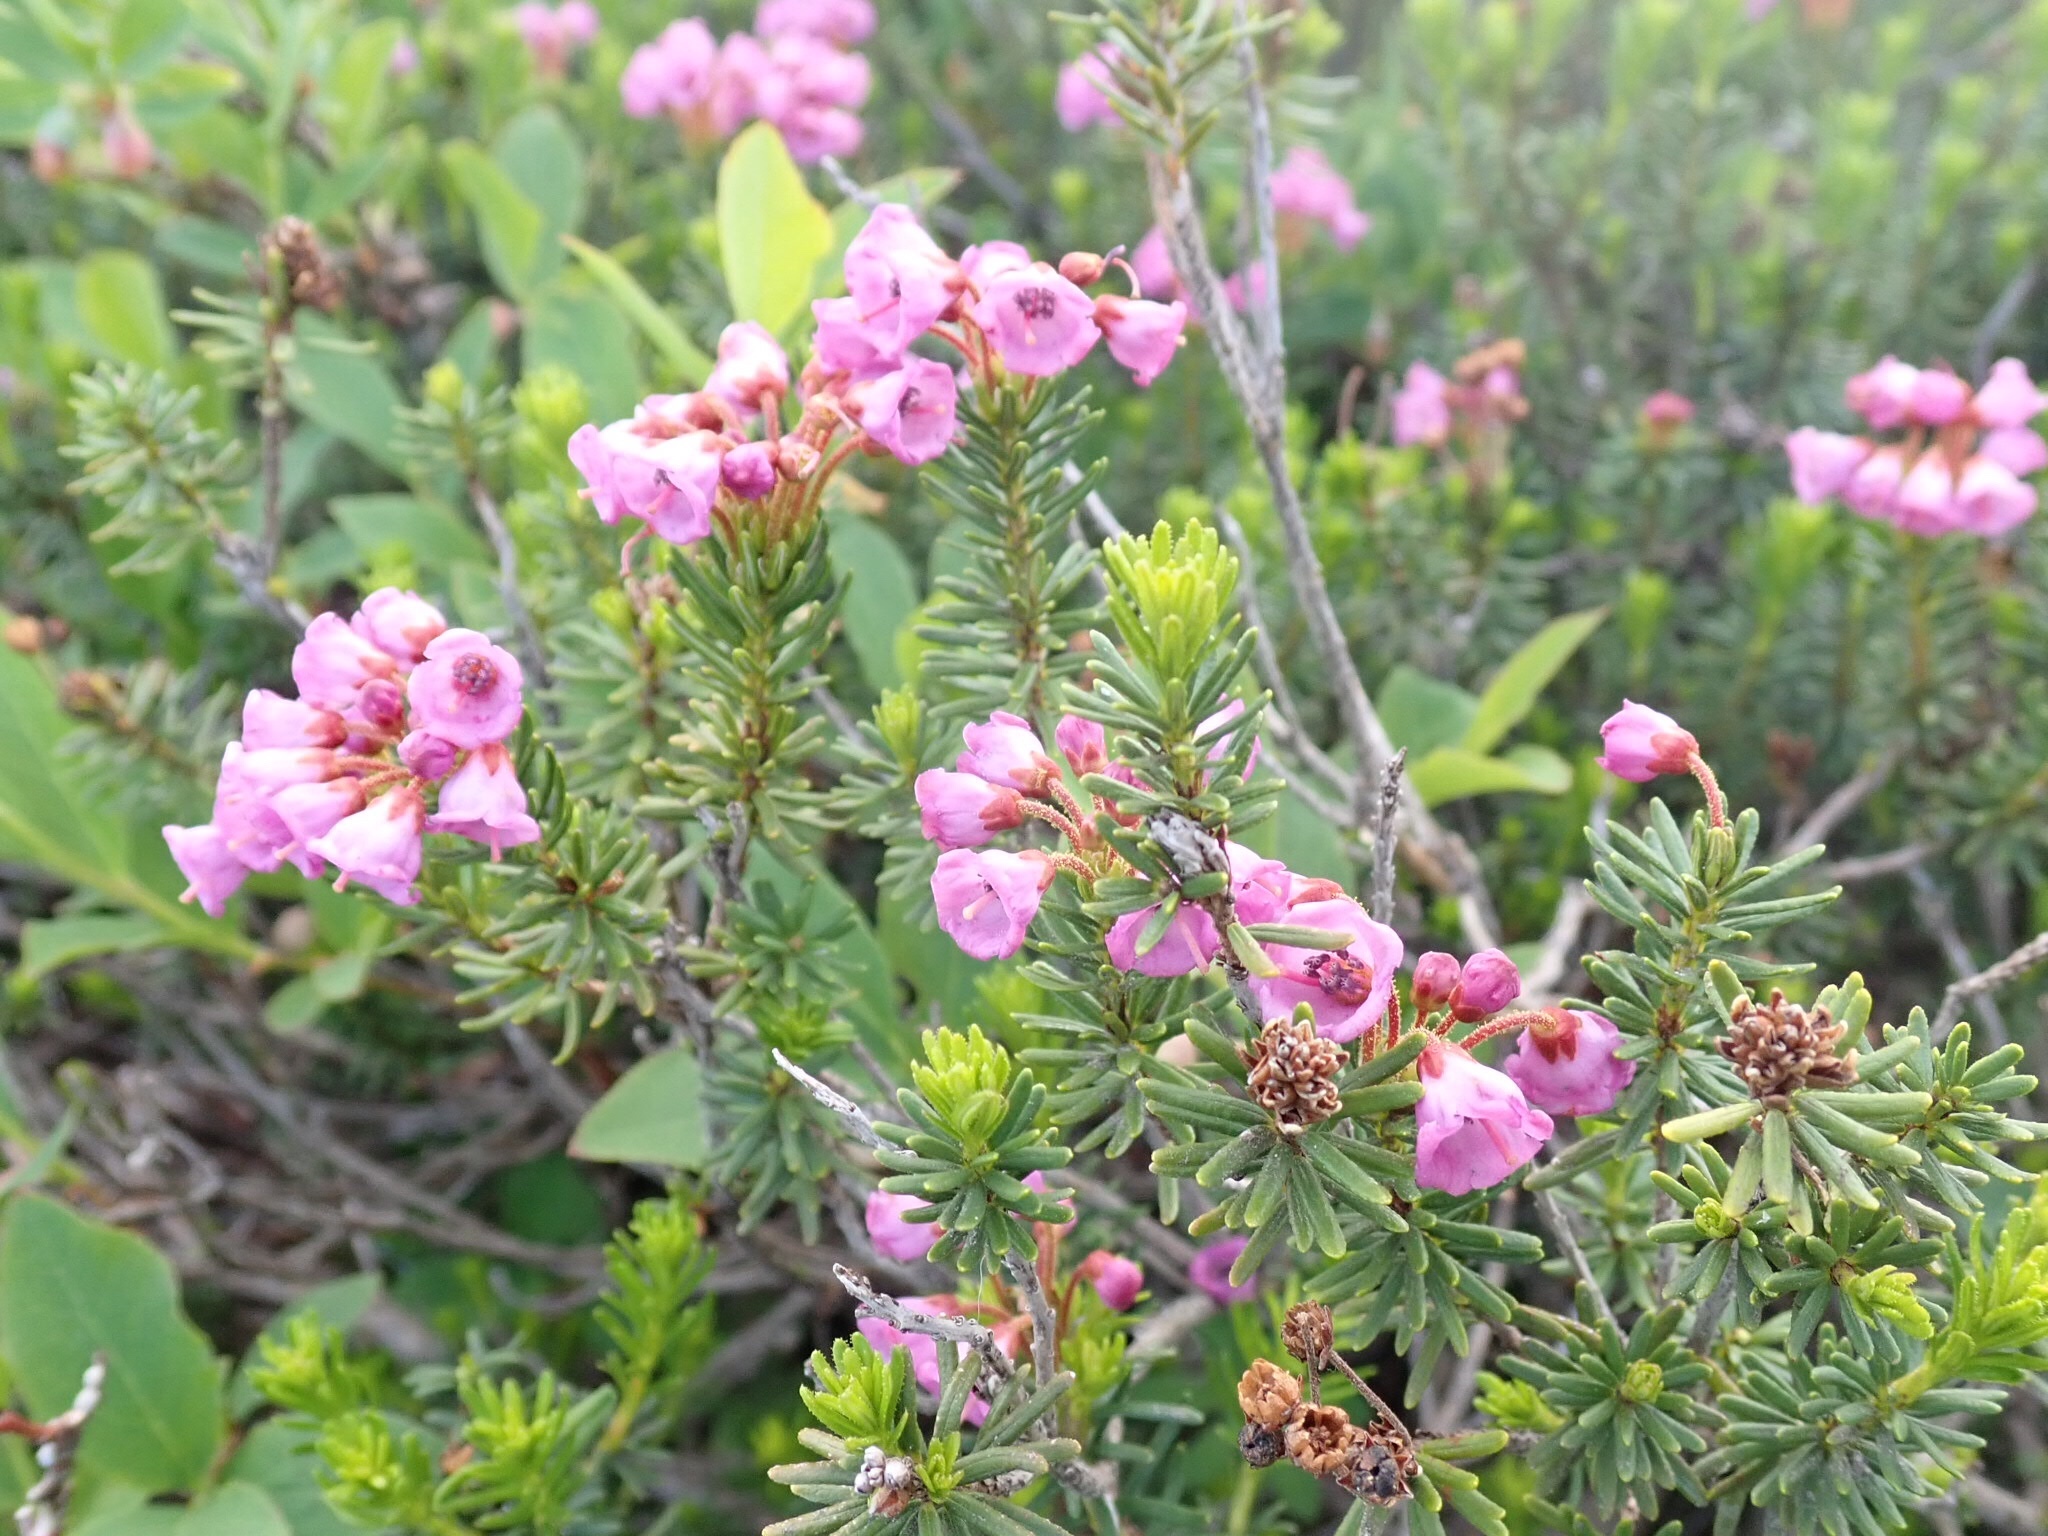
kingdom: Plantae
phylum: Tracheophyta
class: Magnoliopsida
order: Ericales
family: Ericaceae
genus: Phyllodoce
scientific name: Phyllodoce empetriformis
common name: Pink mountain heather
